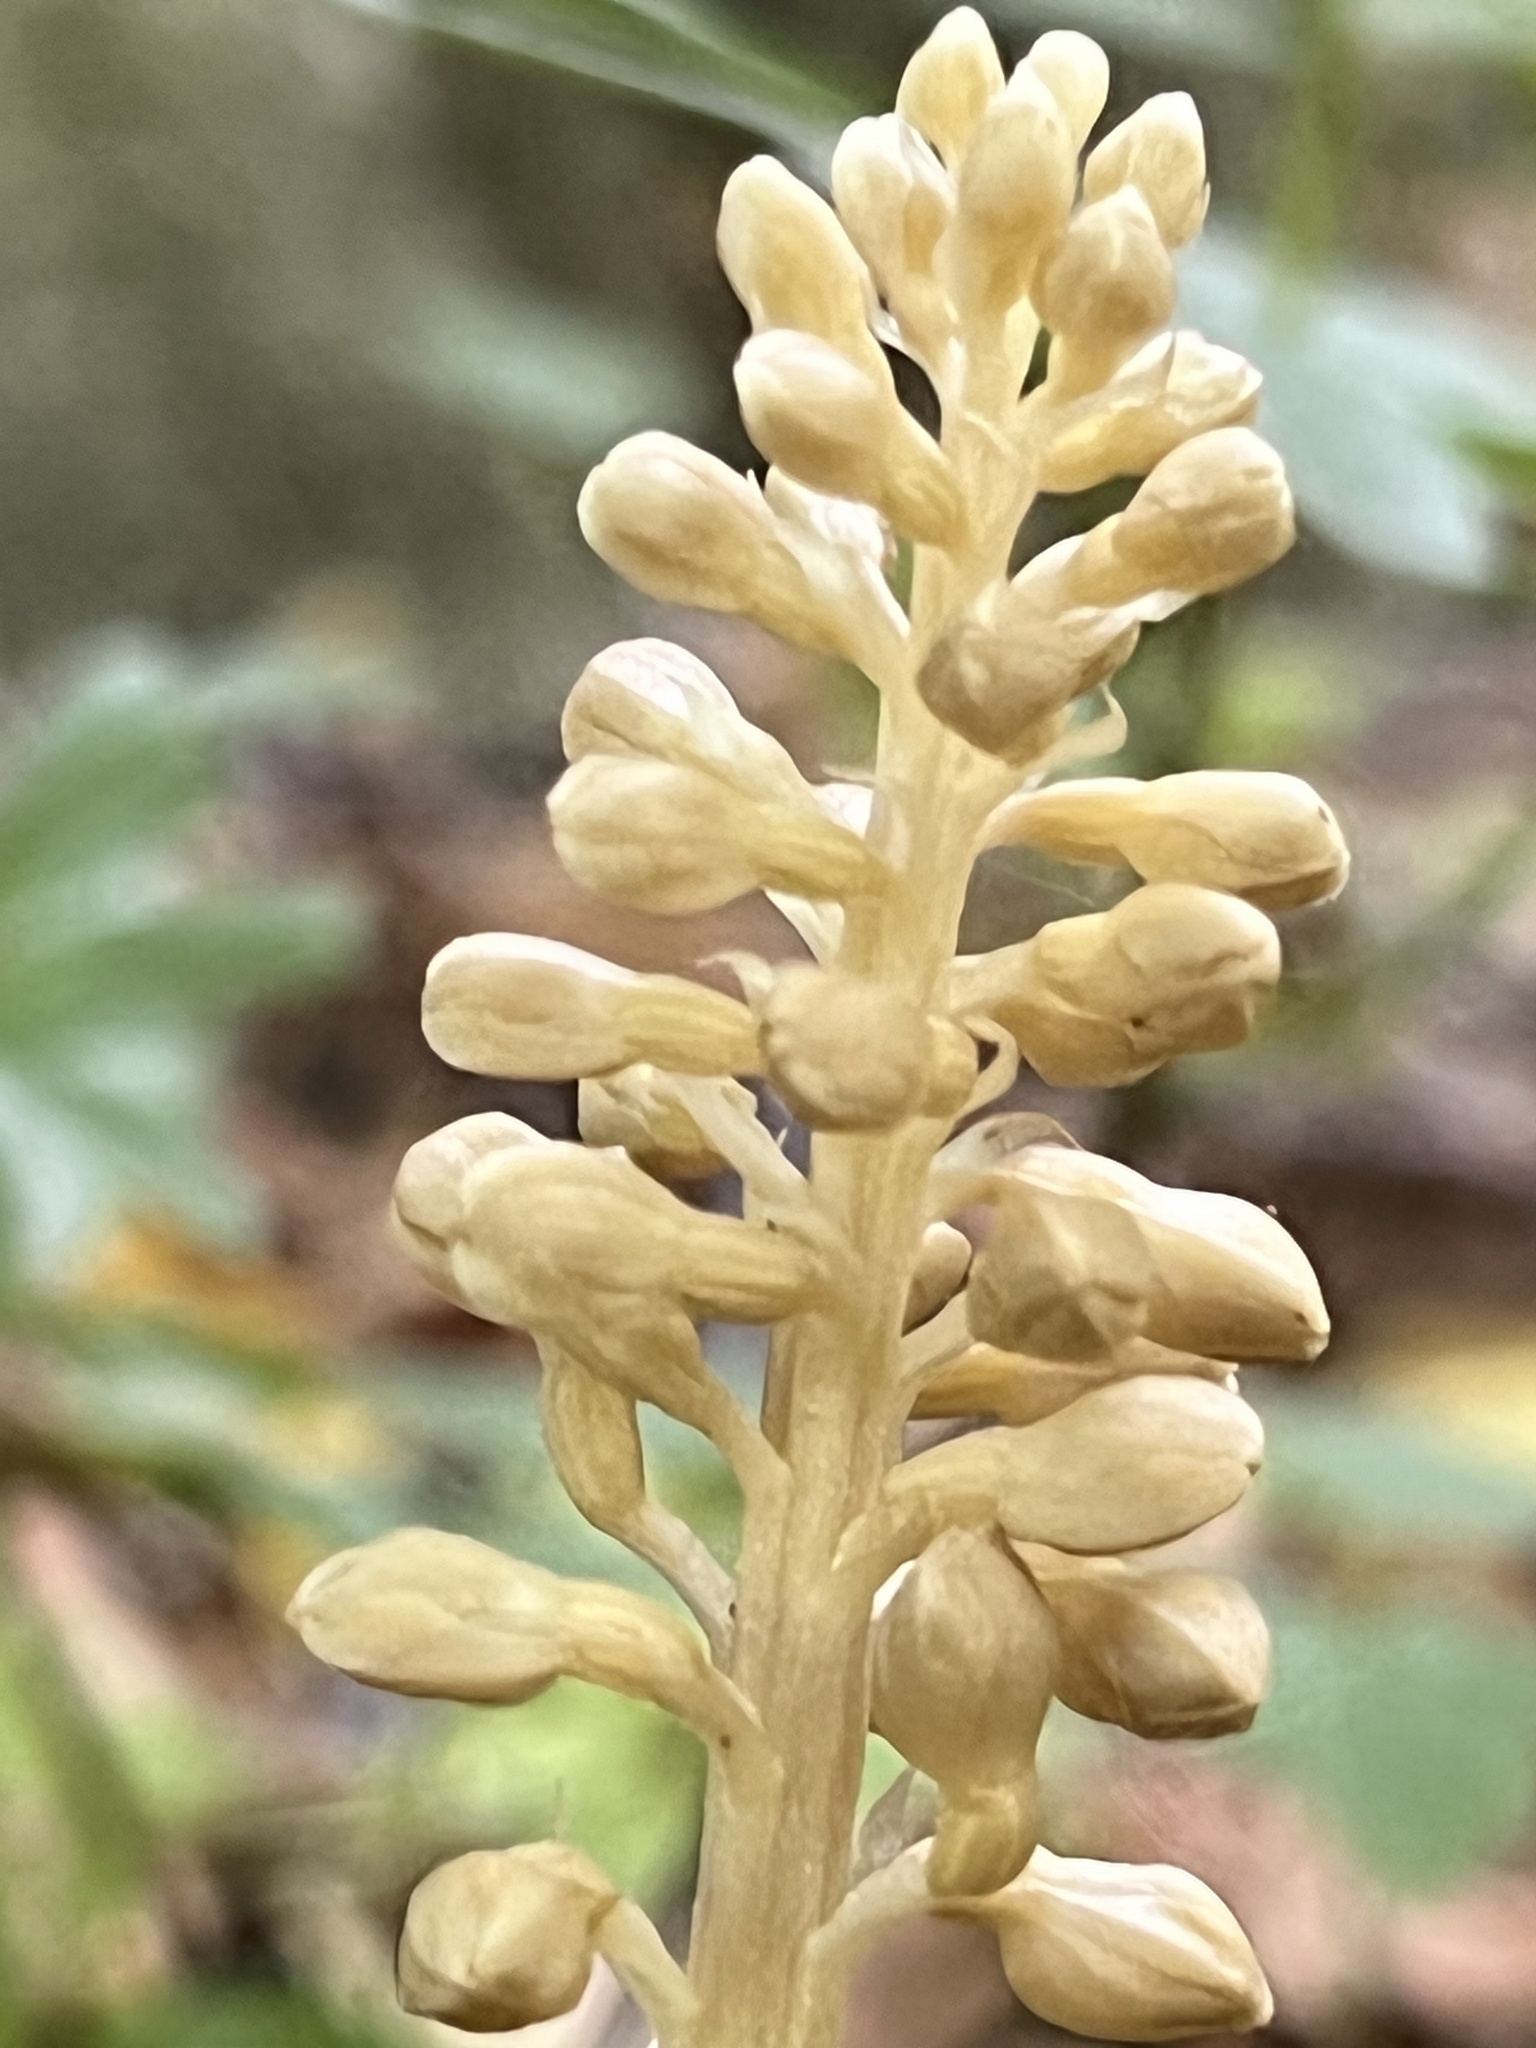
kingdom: Plantae
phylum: Tracheophyta
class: Liliopsida
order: Asparagales
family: Orchidaceae
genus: Neottia
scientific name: Neottia nidus-avis
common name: Bird's-nest orchid
